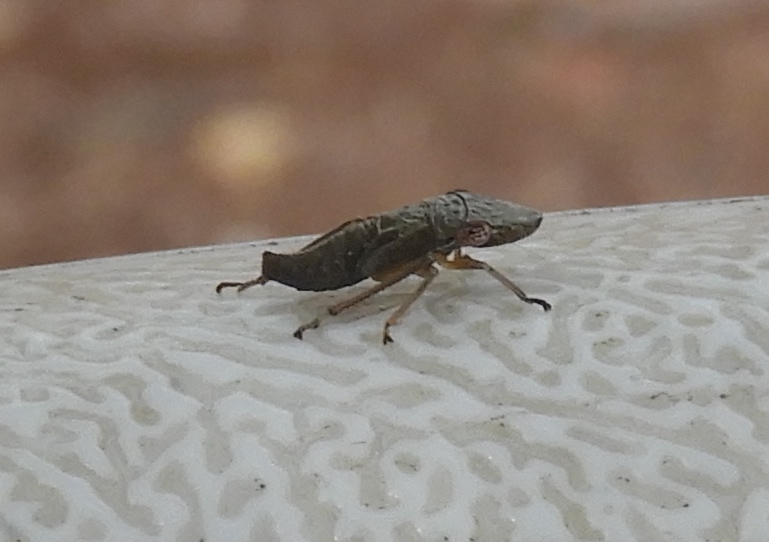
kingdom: Animalia
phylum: Arthropoda
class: Insecta
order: Hemiptera
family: Cicadellidae
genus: Homalodisca
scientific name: Homalodisca
